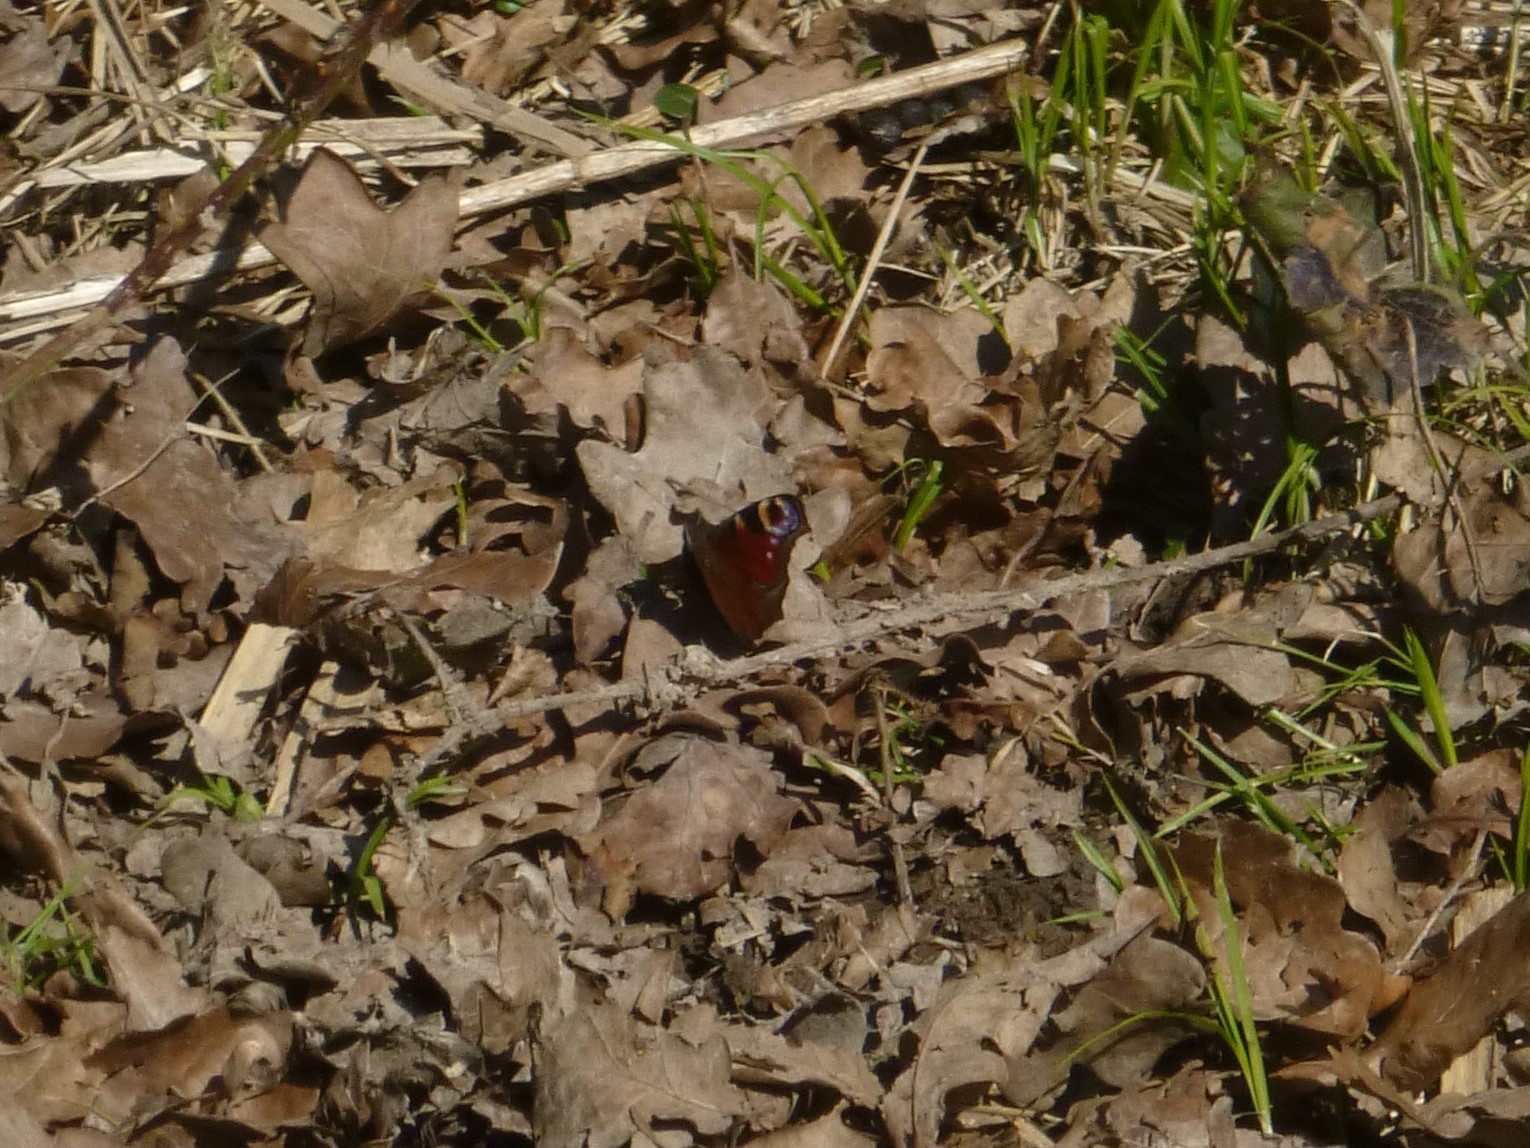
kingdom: Animalia
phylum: Arthropoda
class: Insecta
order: Lepidoptera
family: Nymphalidae
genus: Aglais
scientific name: Aglais io
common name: Peacock
